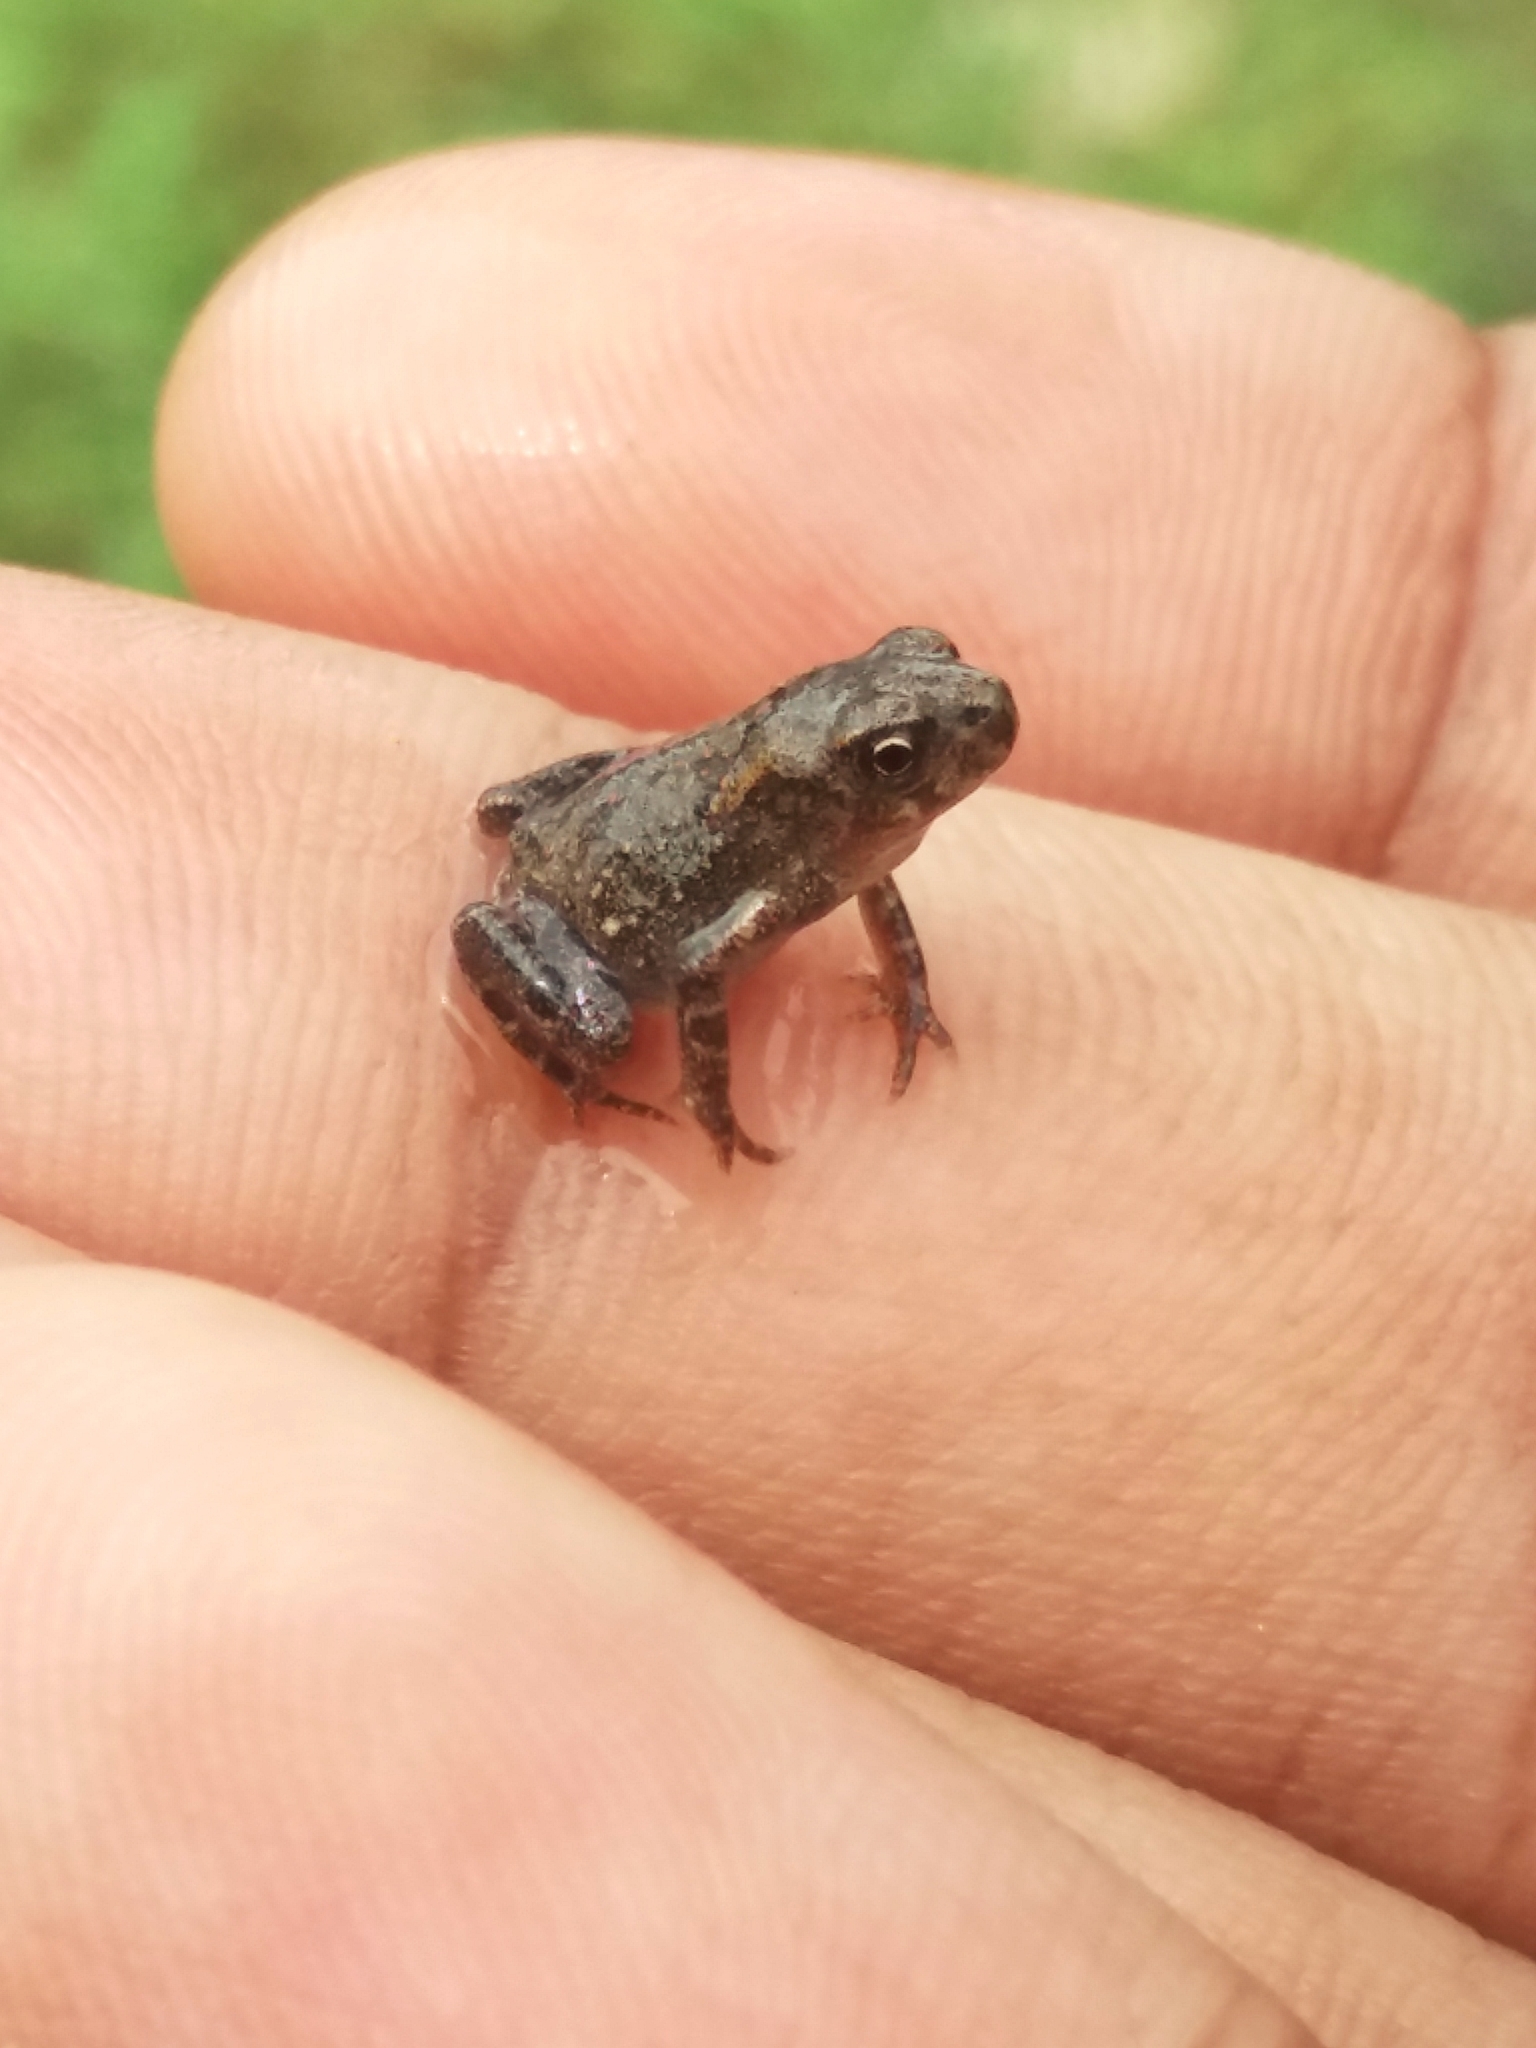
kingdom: Animalia
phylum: Chordata
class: Amphibia
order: Anura
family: Bufonidae
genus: Duttaphrynus
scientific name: Duttaphrynus melanostictus
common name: Common sunda toad
